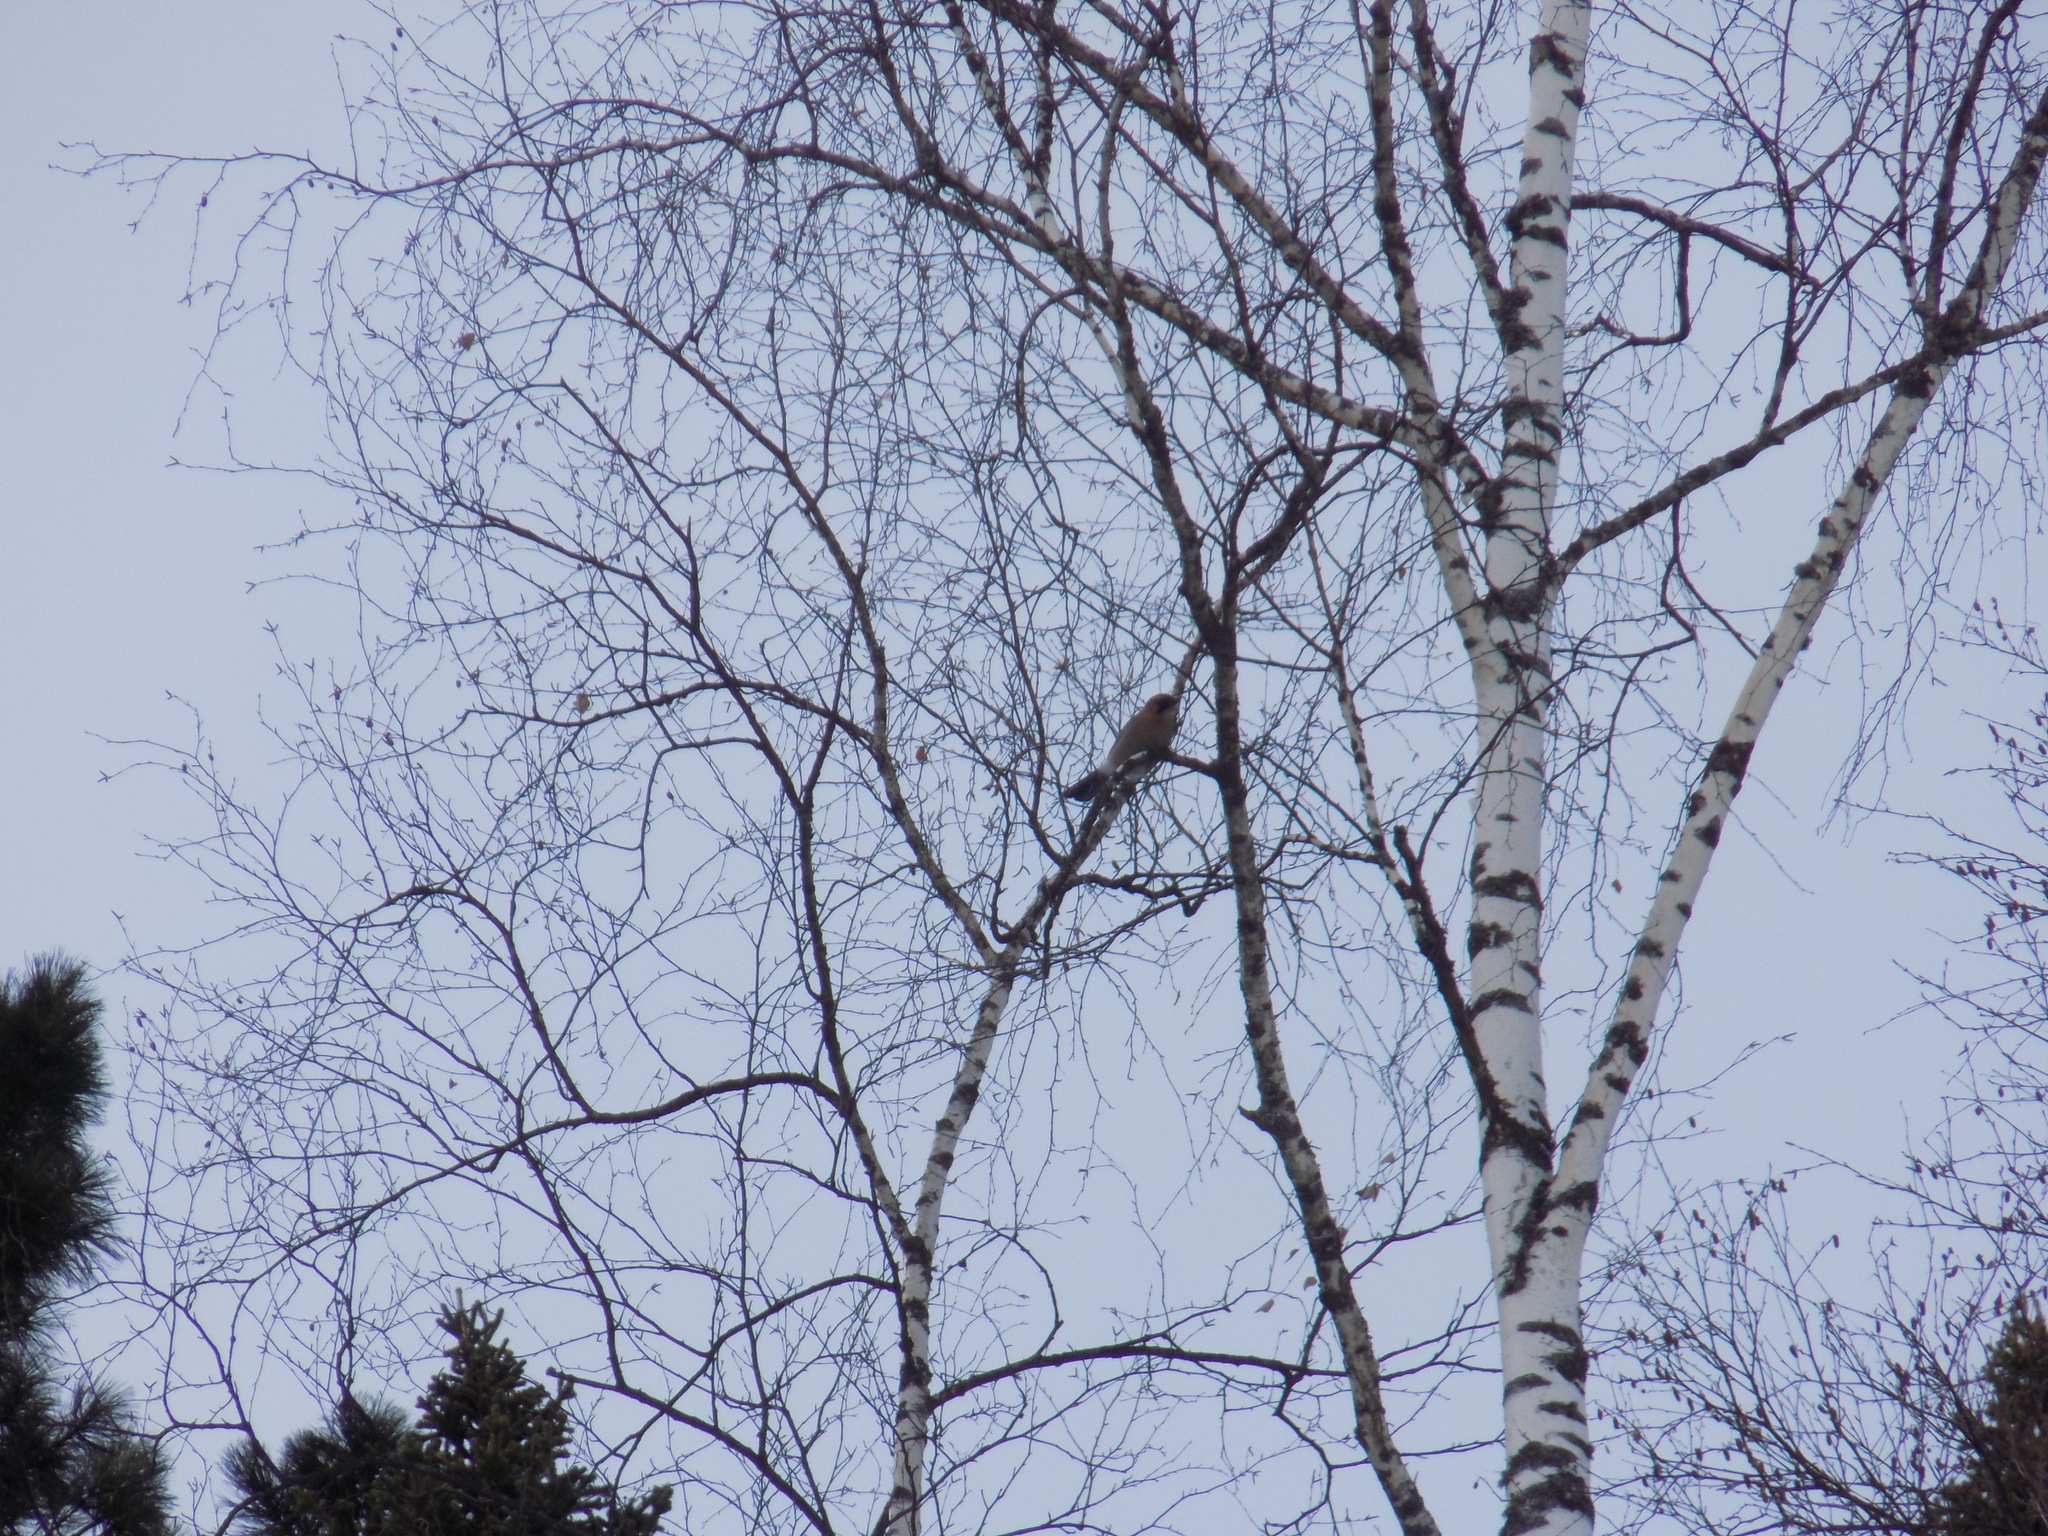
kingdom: Animalia
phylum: Chordata
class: Aves
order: Passeriformes
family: Corvidae
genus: Garrulus
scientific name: Garrulus glandarius
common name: Eurasian jay
